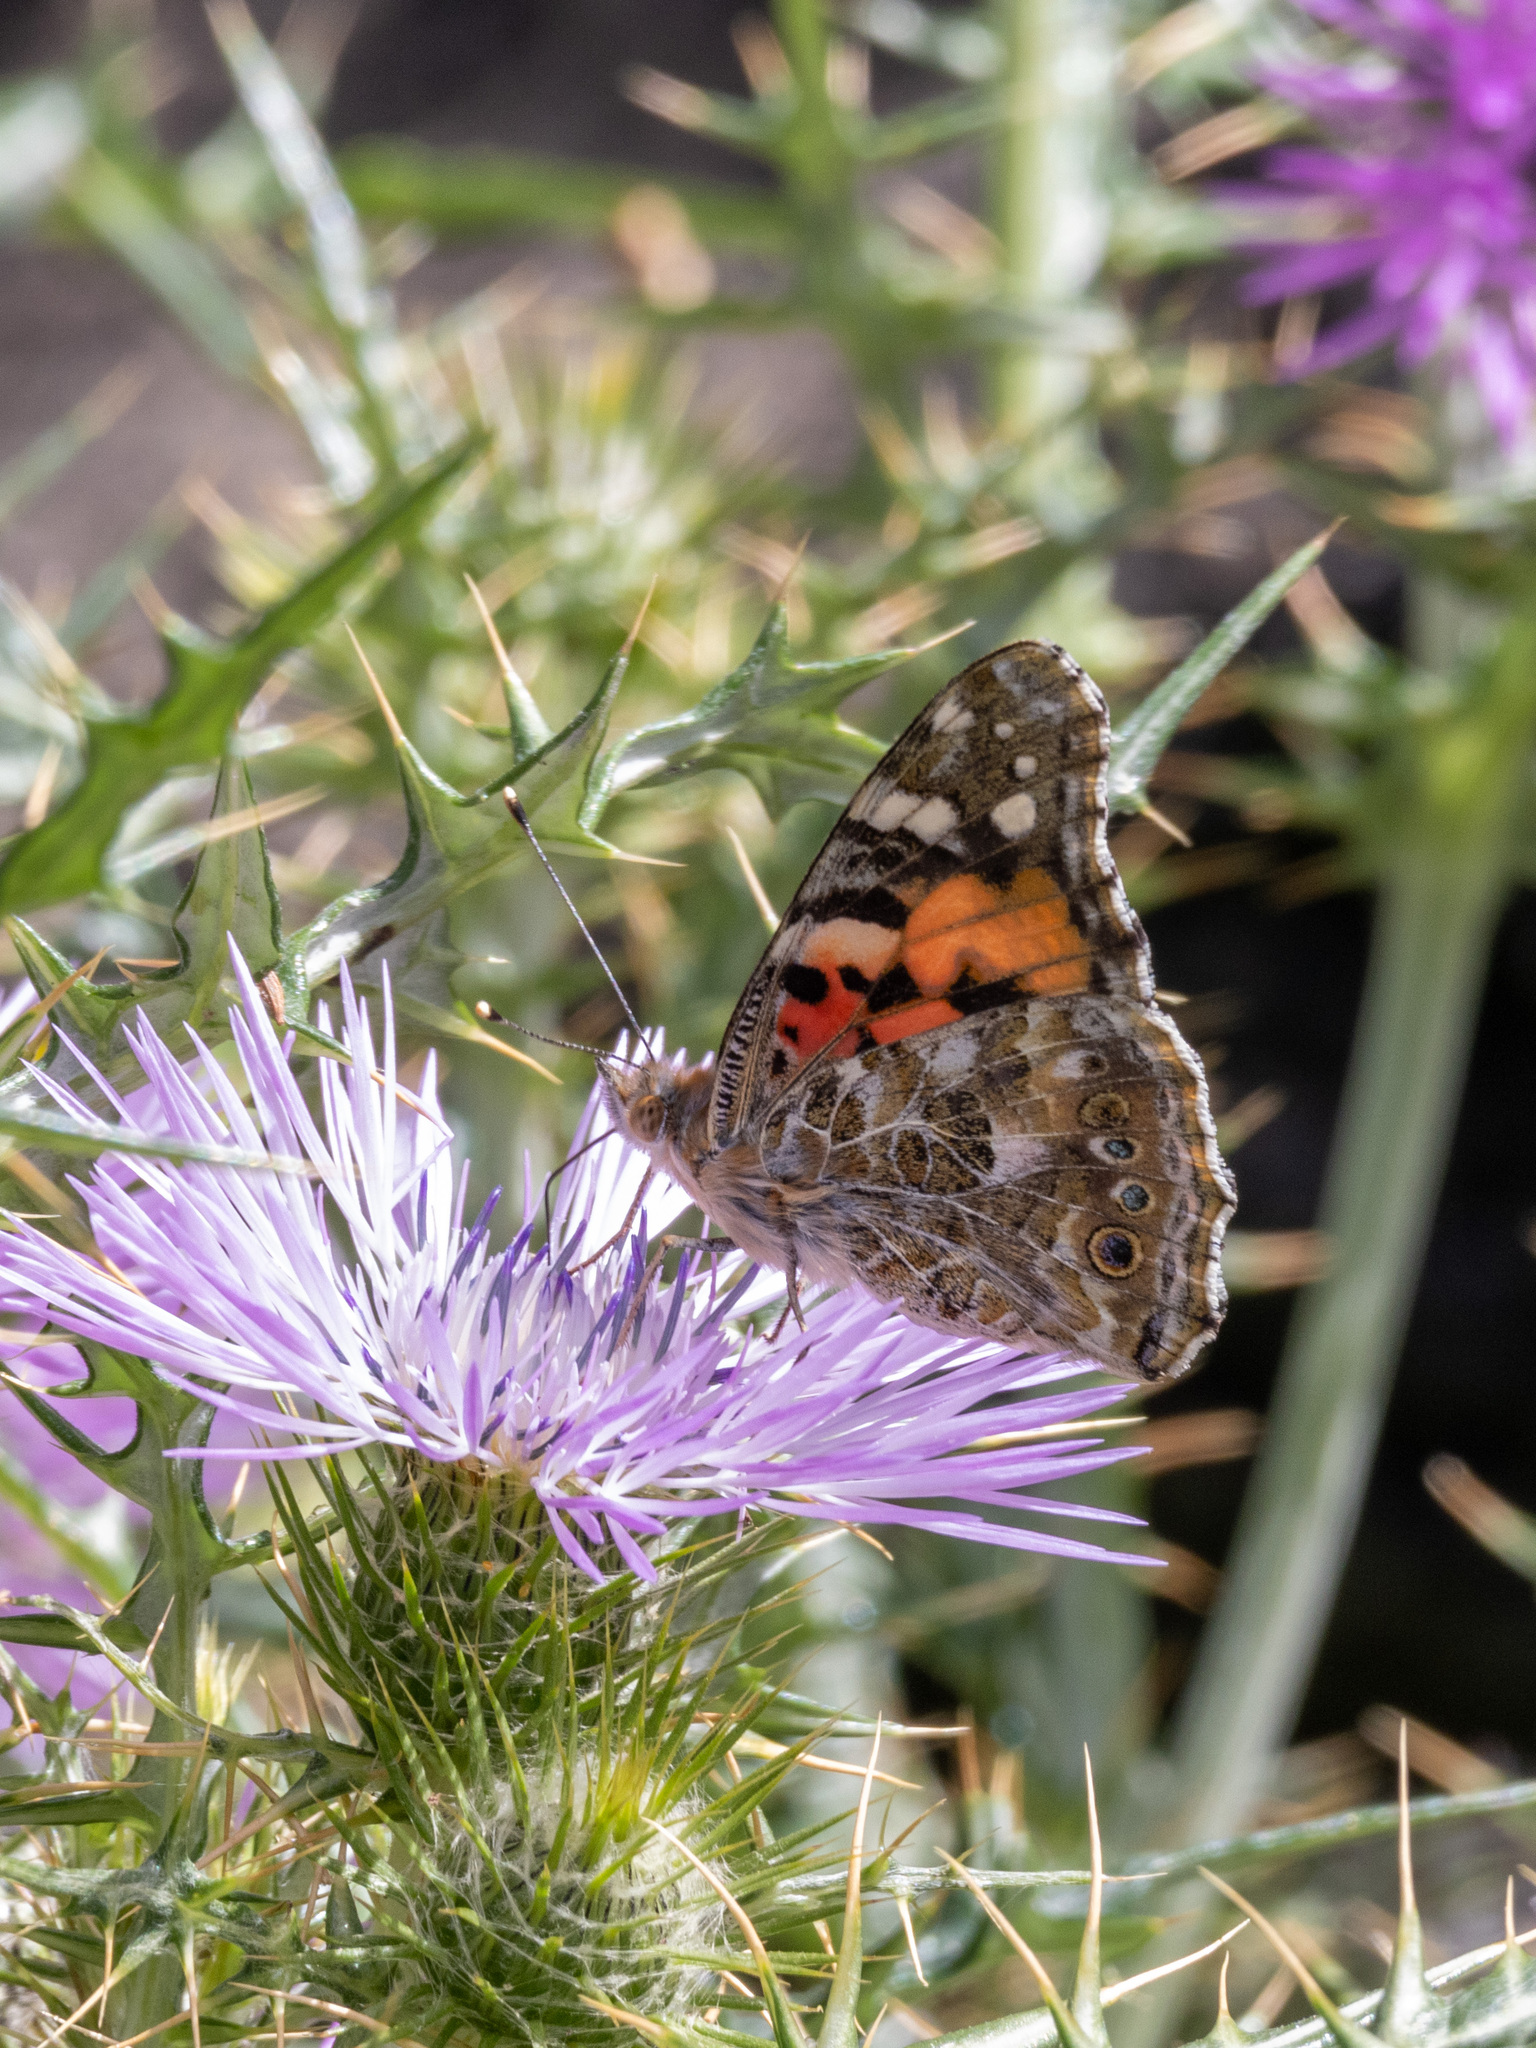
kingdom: Animalia
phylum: Arthropoda
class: Insecta
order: Lepidoptera
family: Nymphalidae
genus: Vanessa
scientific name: Vanessa cardui
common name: Painted lady
